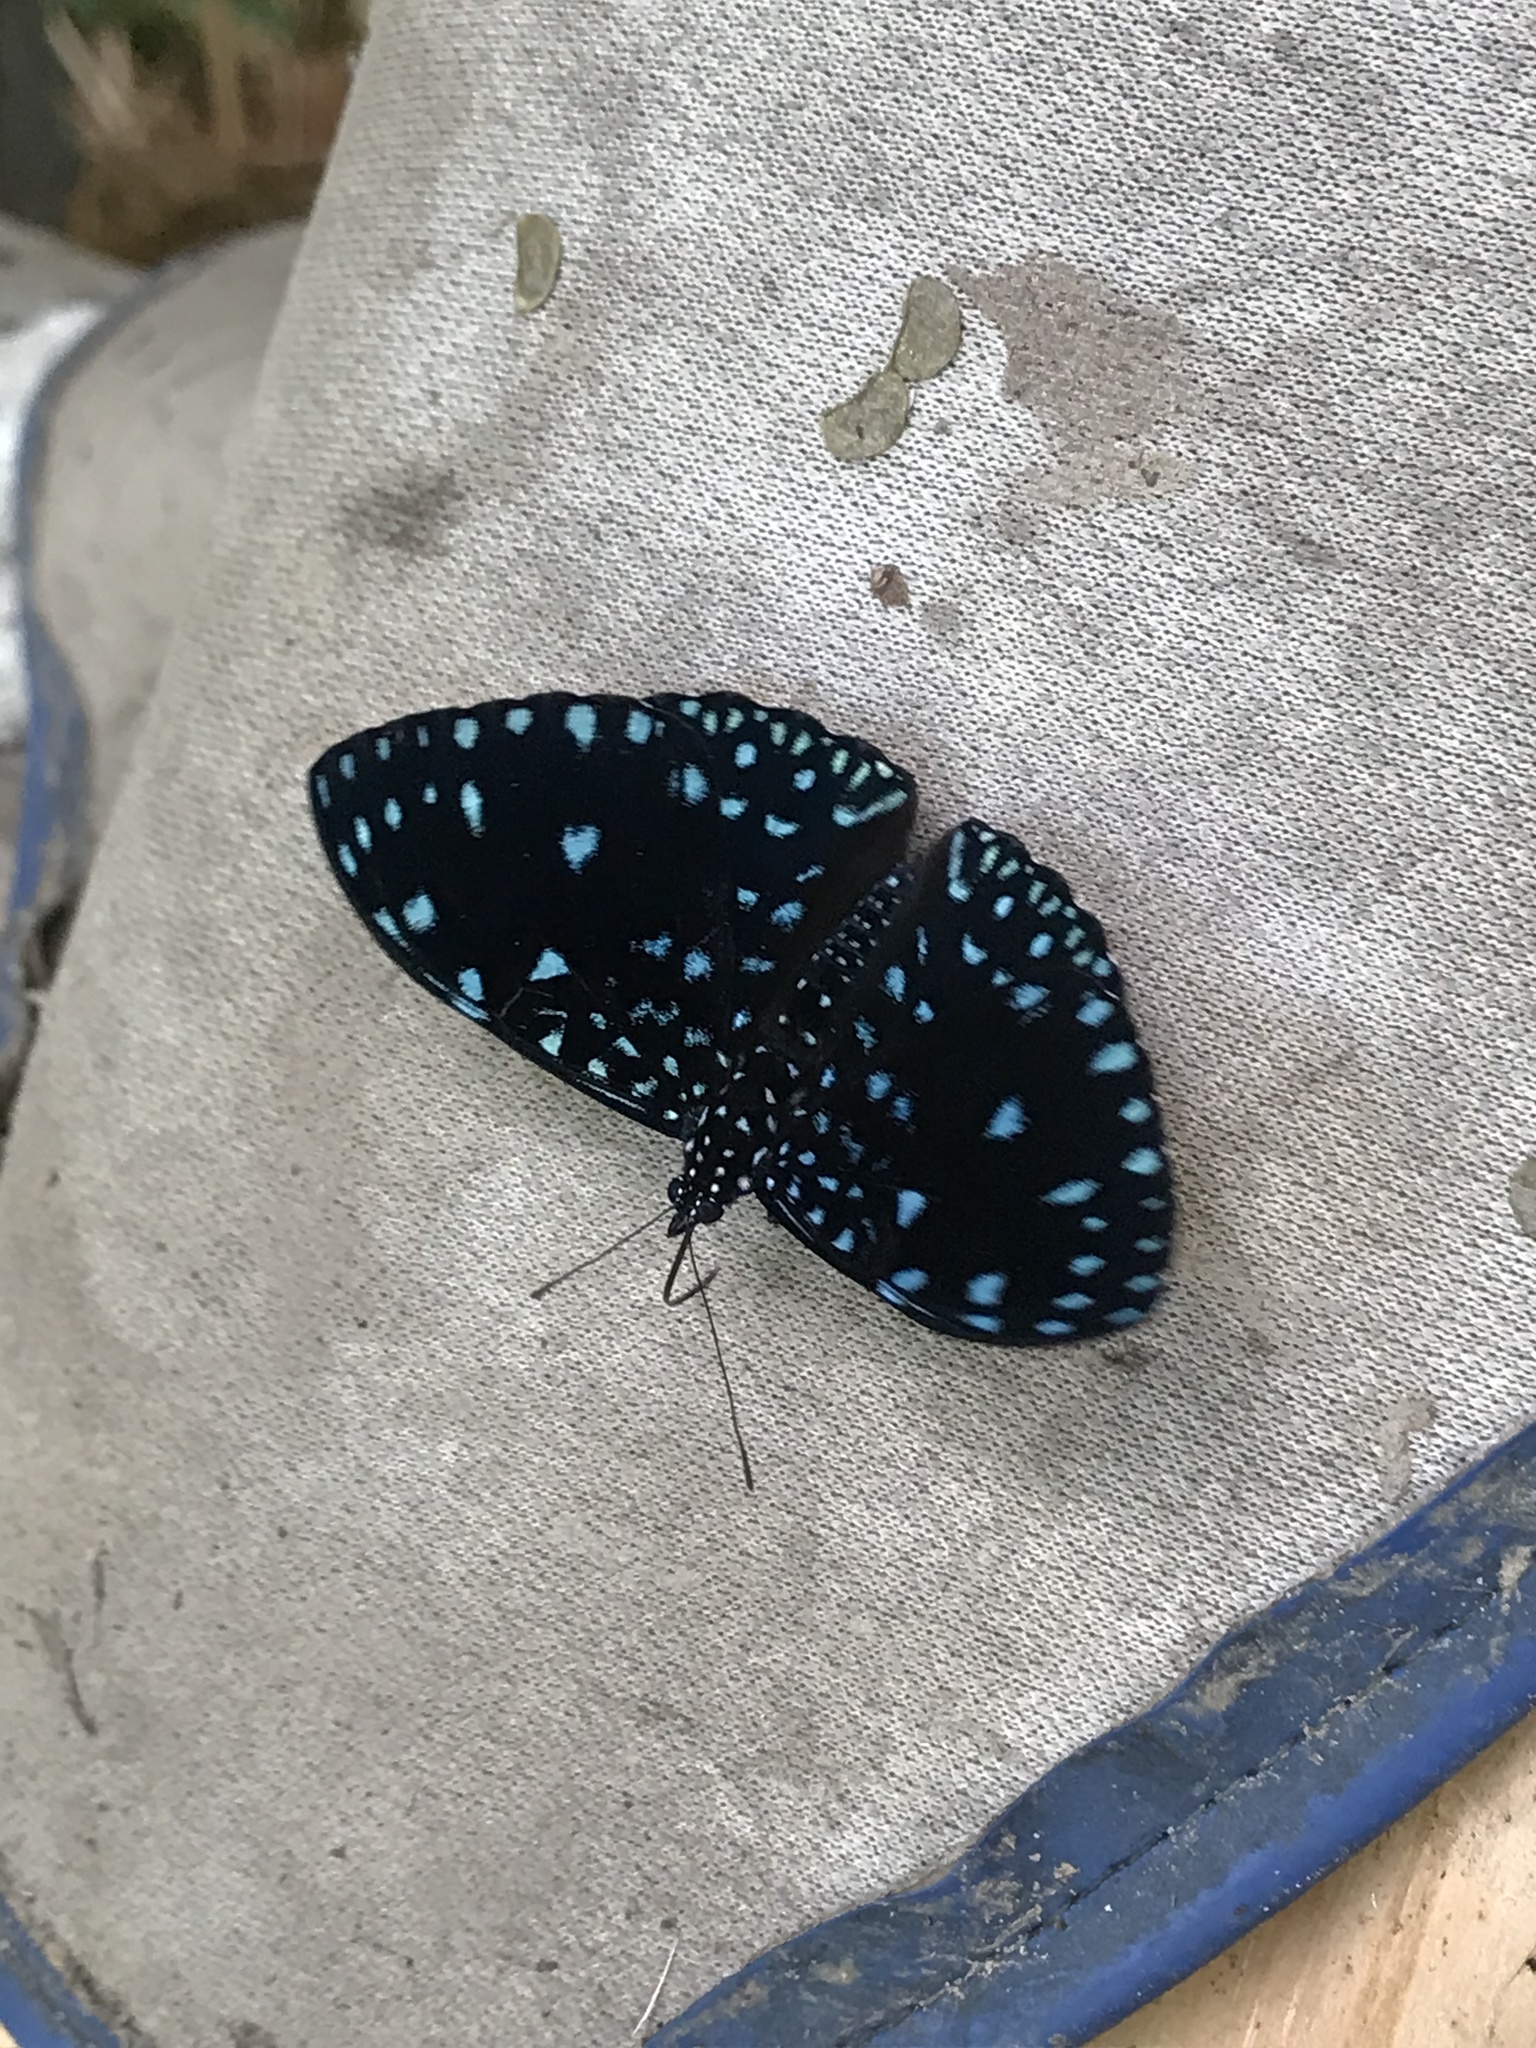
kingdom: Animalia
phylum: Arthropoda
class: Insecta
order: Lepidoptera
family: Nymphalidae
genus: Hamadryas
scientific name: Hamadryas laodamia
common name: Starry night cracker
